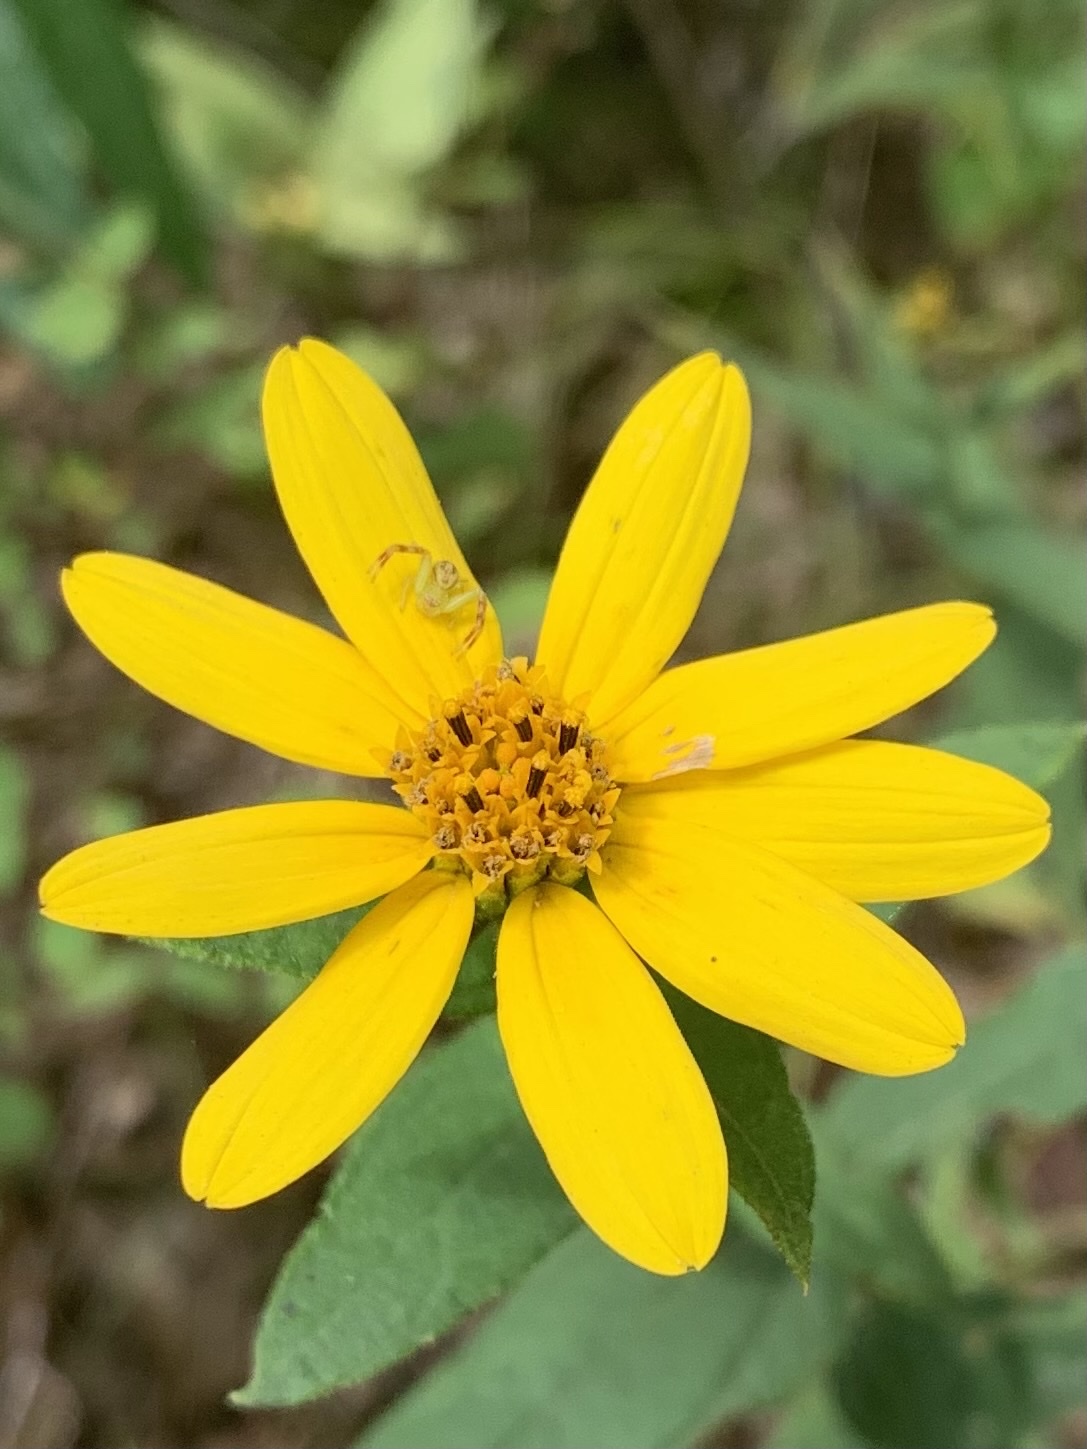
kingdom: Plantae
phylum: Tracheophyta
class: Magnoliopsida
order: Asterales
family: Asteraceae
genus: Helianthus
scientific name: Helianthus divaricatus
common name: Divergent sunflower
